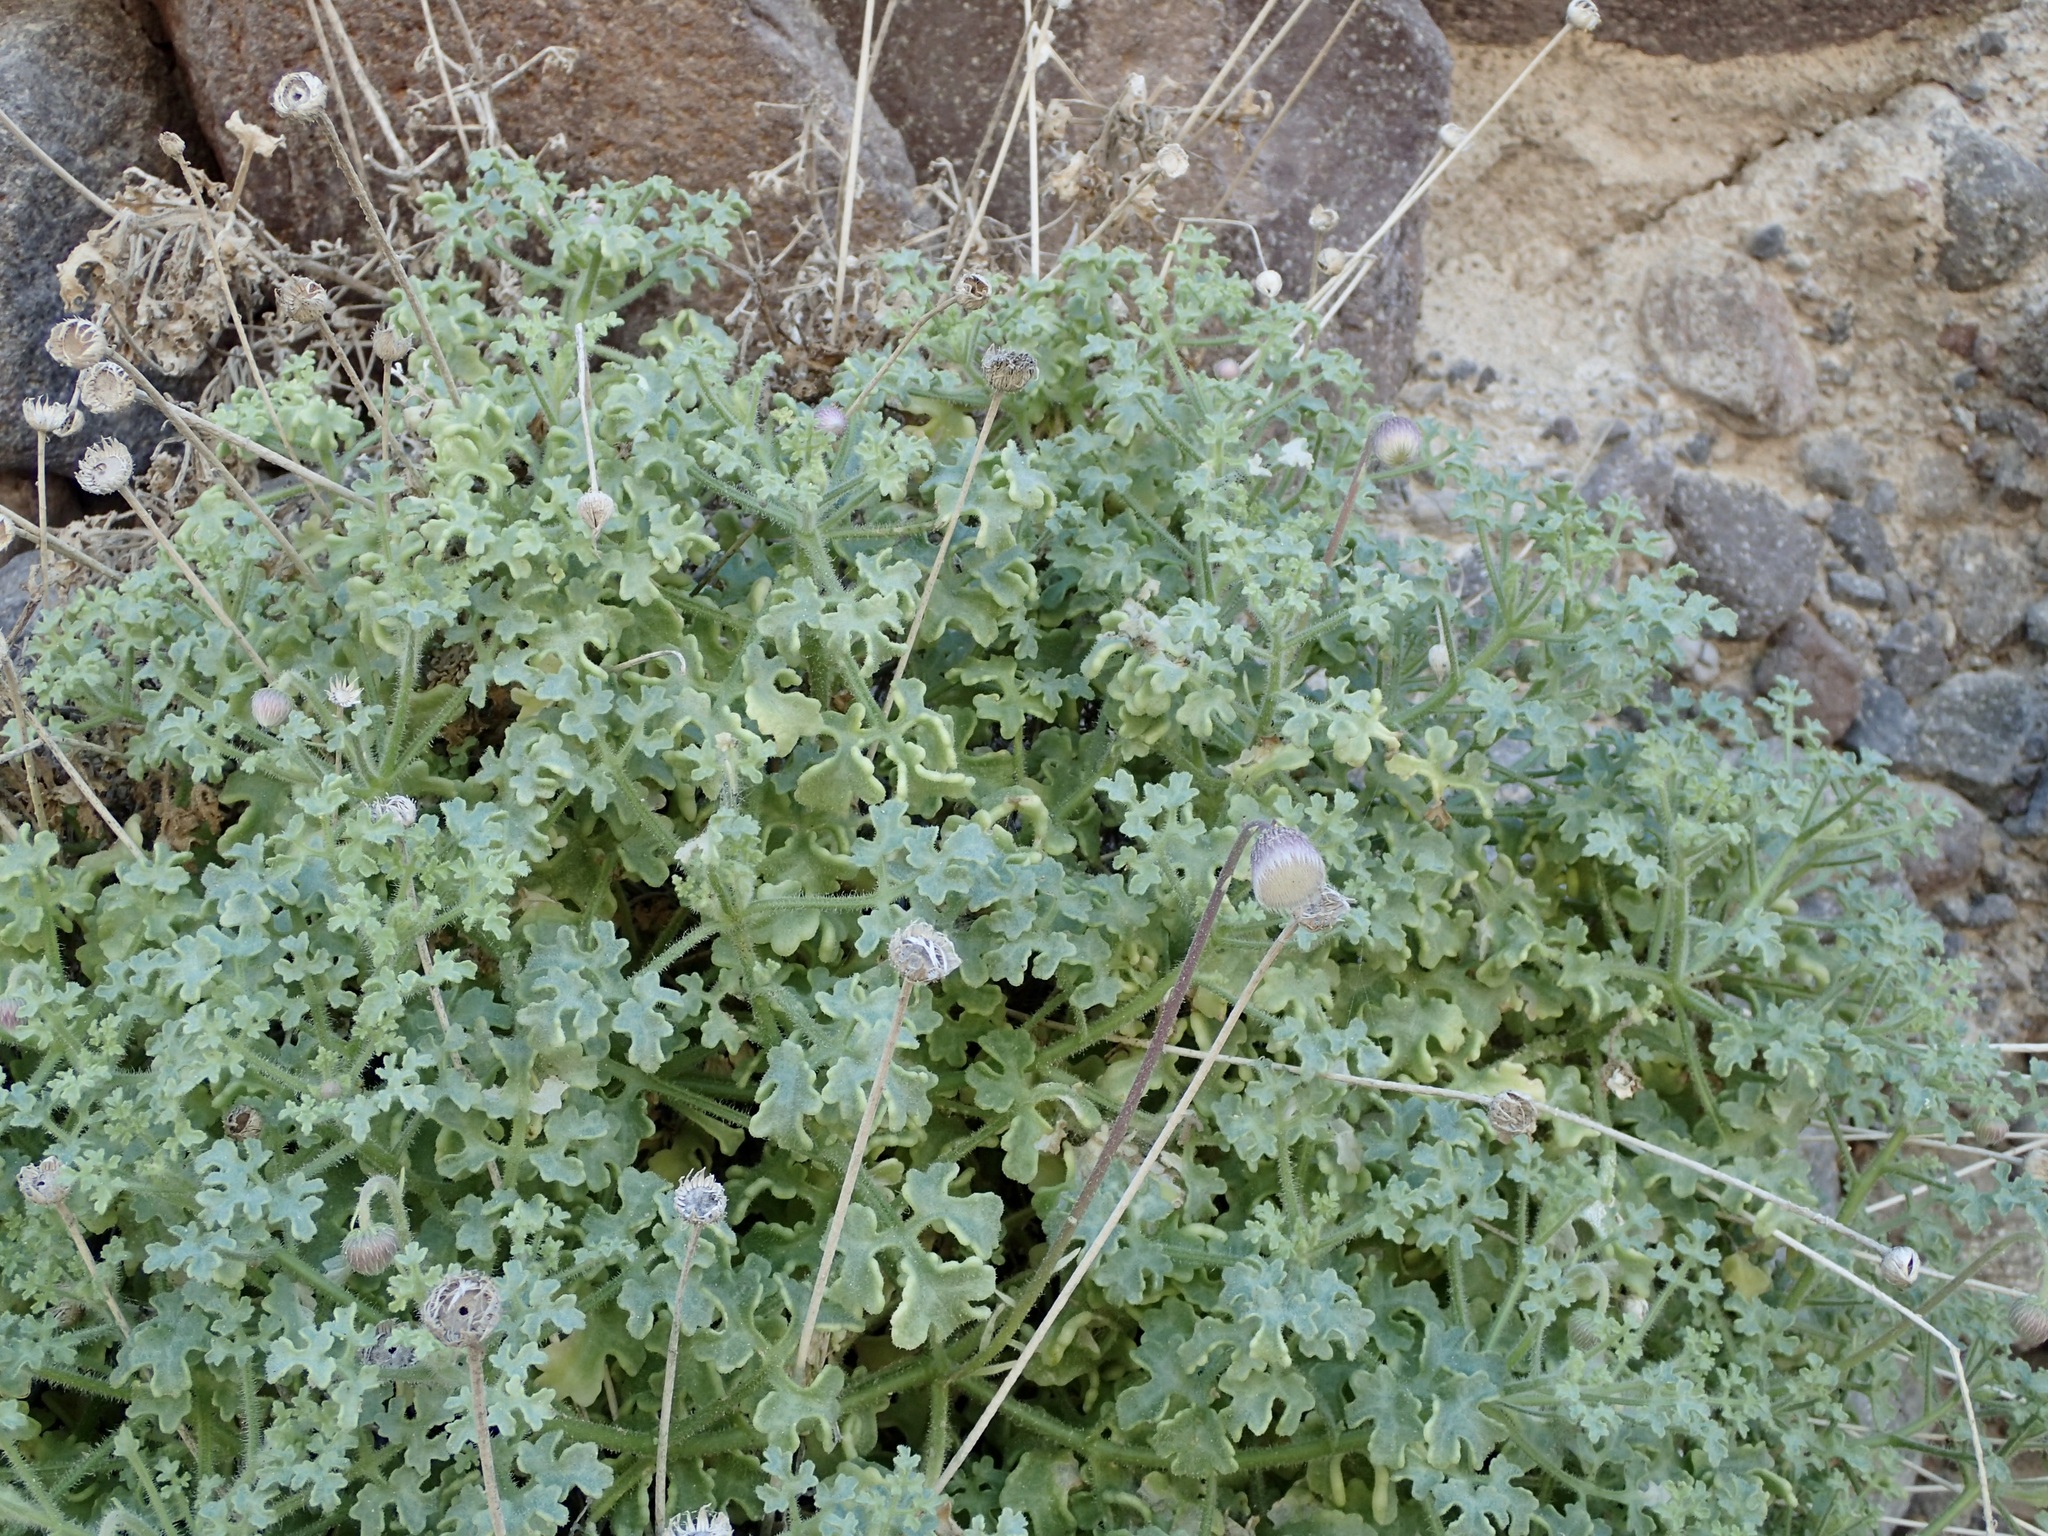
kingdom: Plantae
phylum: Tracheophyta
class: Magnoliopsida
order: Asterales
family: Asteraceae
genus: Hofmeisteria
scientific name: Hofmeisteria fasciculata
